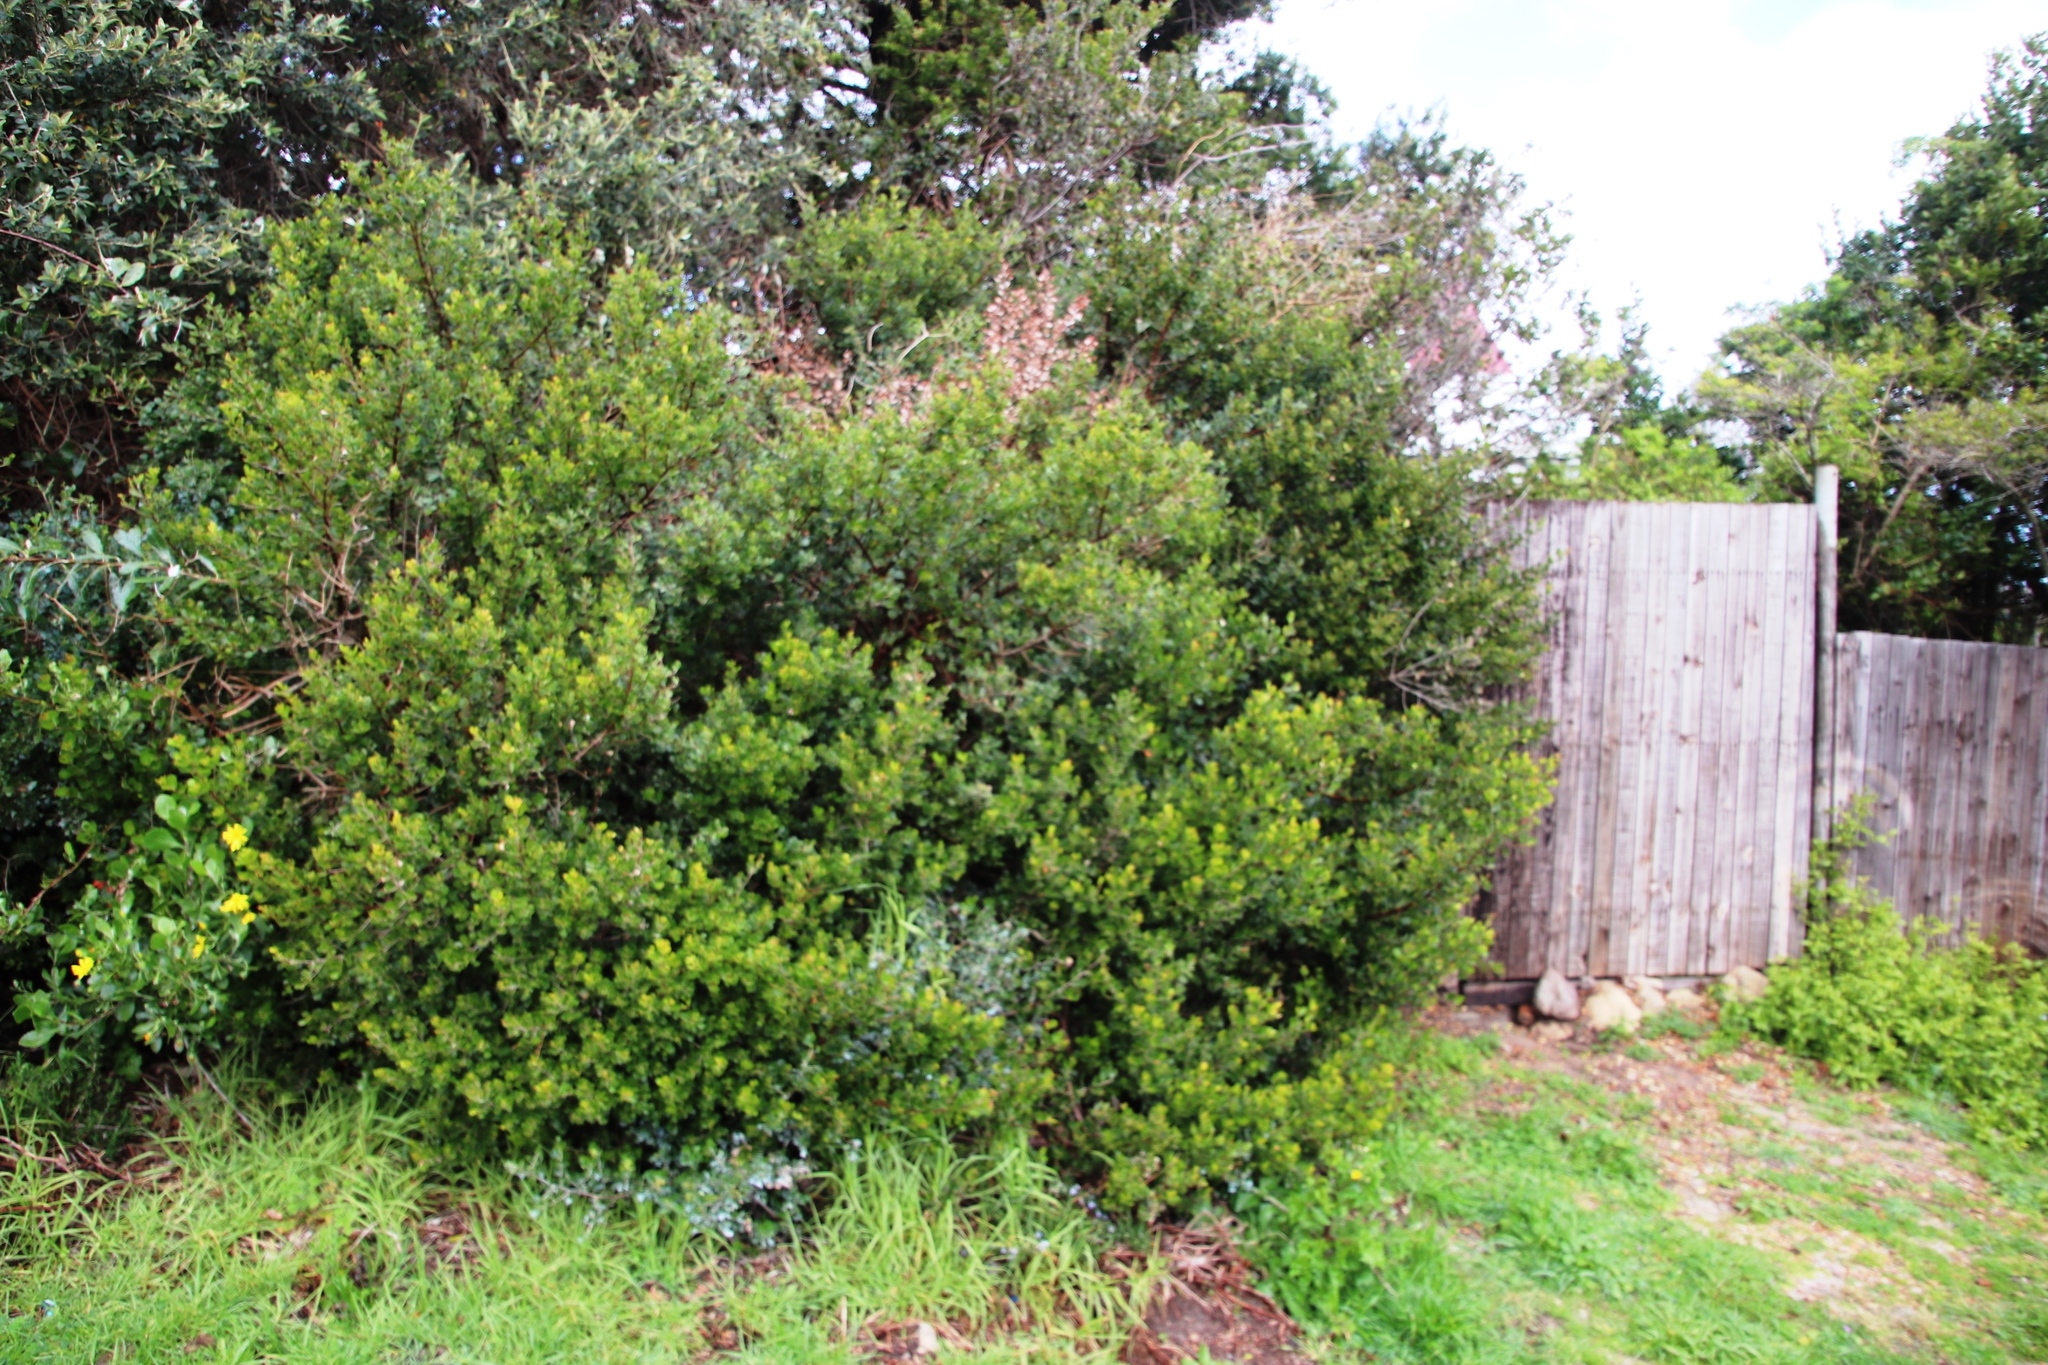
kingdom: Plantae
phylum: Tracheophyta
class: Magnoliopsida
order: Sapindales
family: Anacardiaceae
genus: Searsia
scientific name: Searsia lucida
